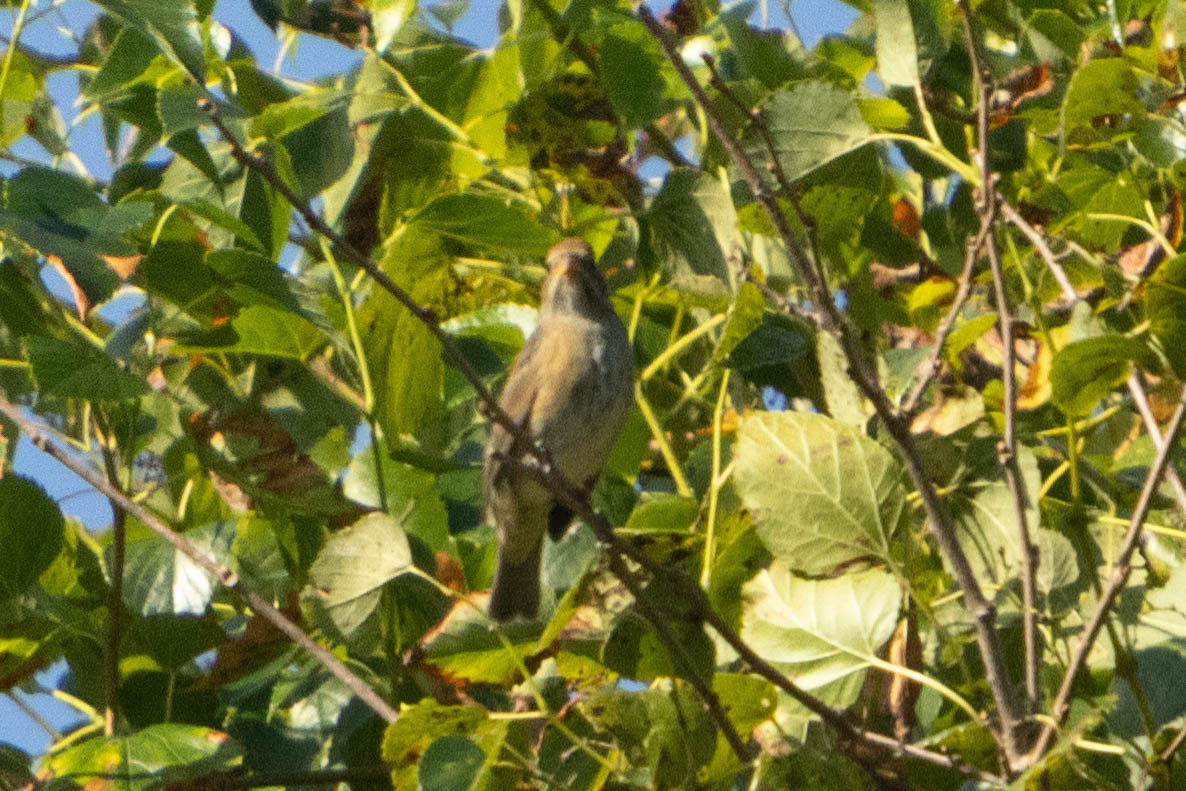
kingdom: Animalia
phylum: Chordata
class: Aves
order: Passeriformes
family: Cardinalidae
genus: Passerina
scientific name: Passerina cyanea
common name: Indigo bunting
